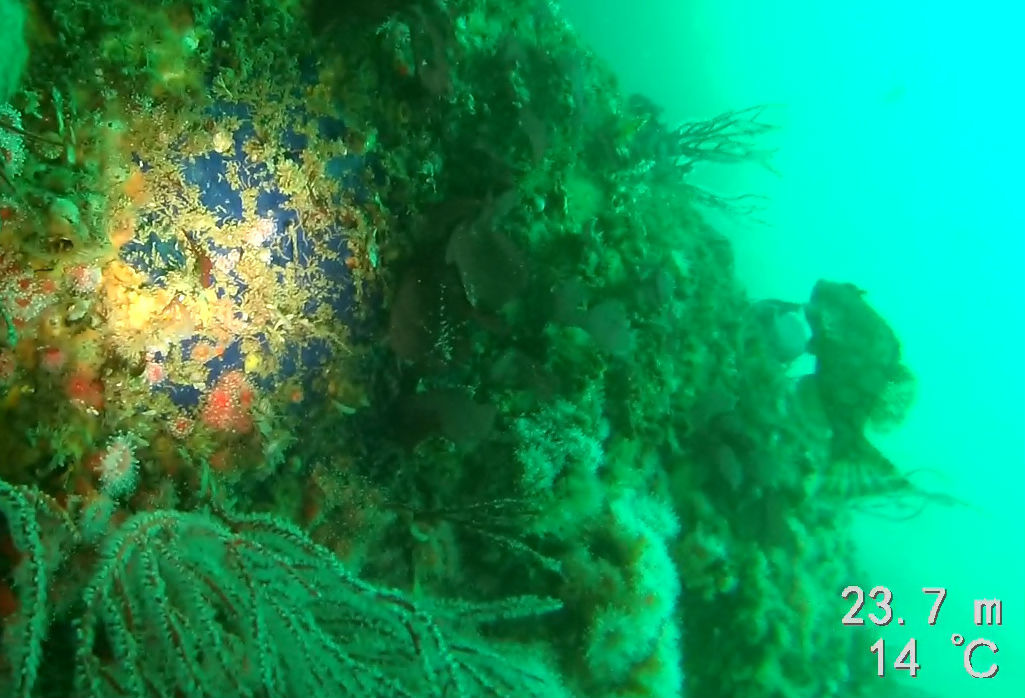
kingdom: Animalia
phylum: Porifera
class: Demospongiae
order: Poecilosclerida
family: Hymedesmiidae
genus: Acanthancora
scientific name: Acanthancora cyanocrypta
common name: Cobalt blue horny sponge
